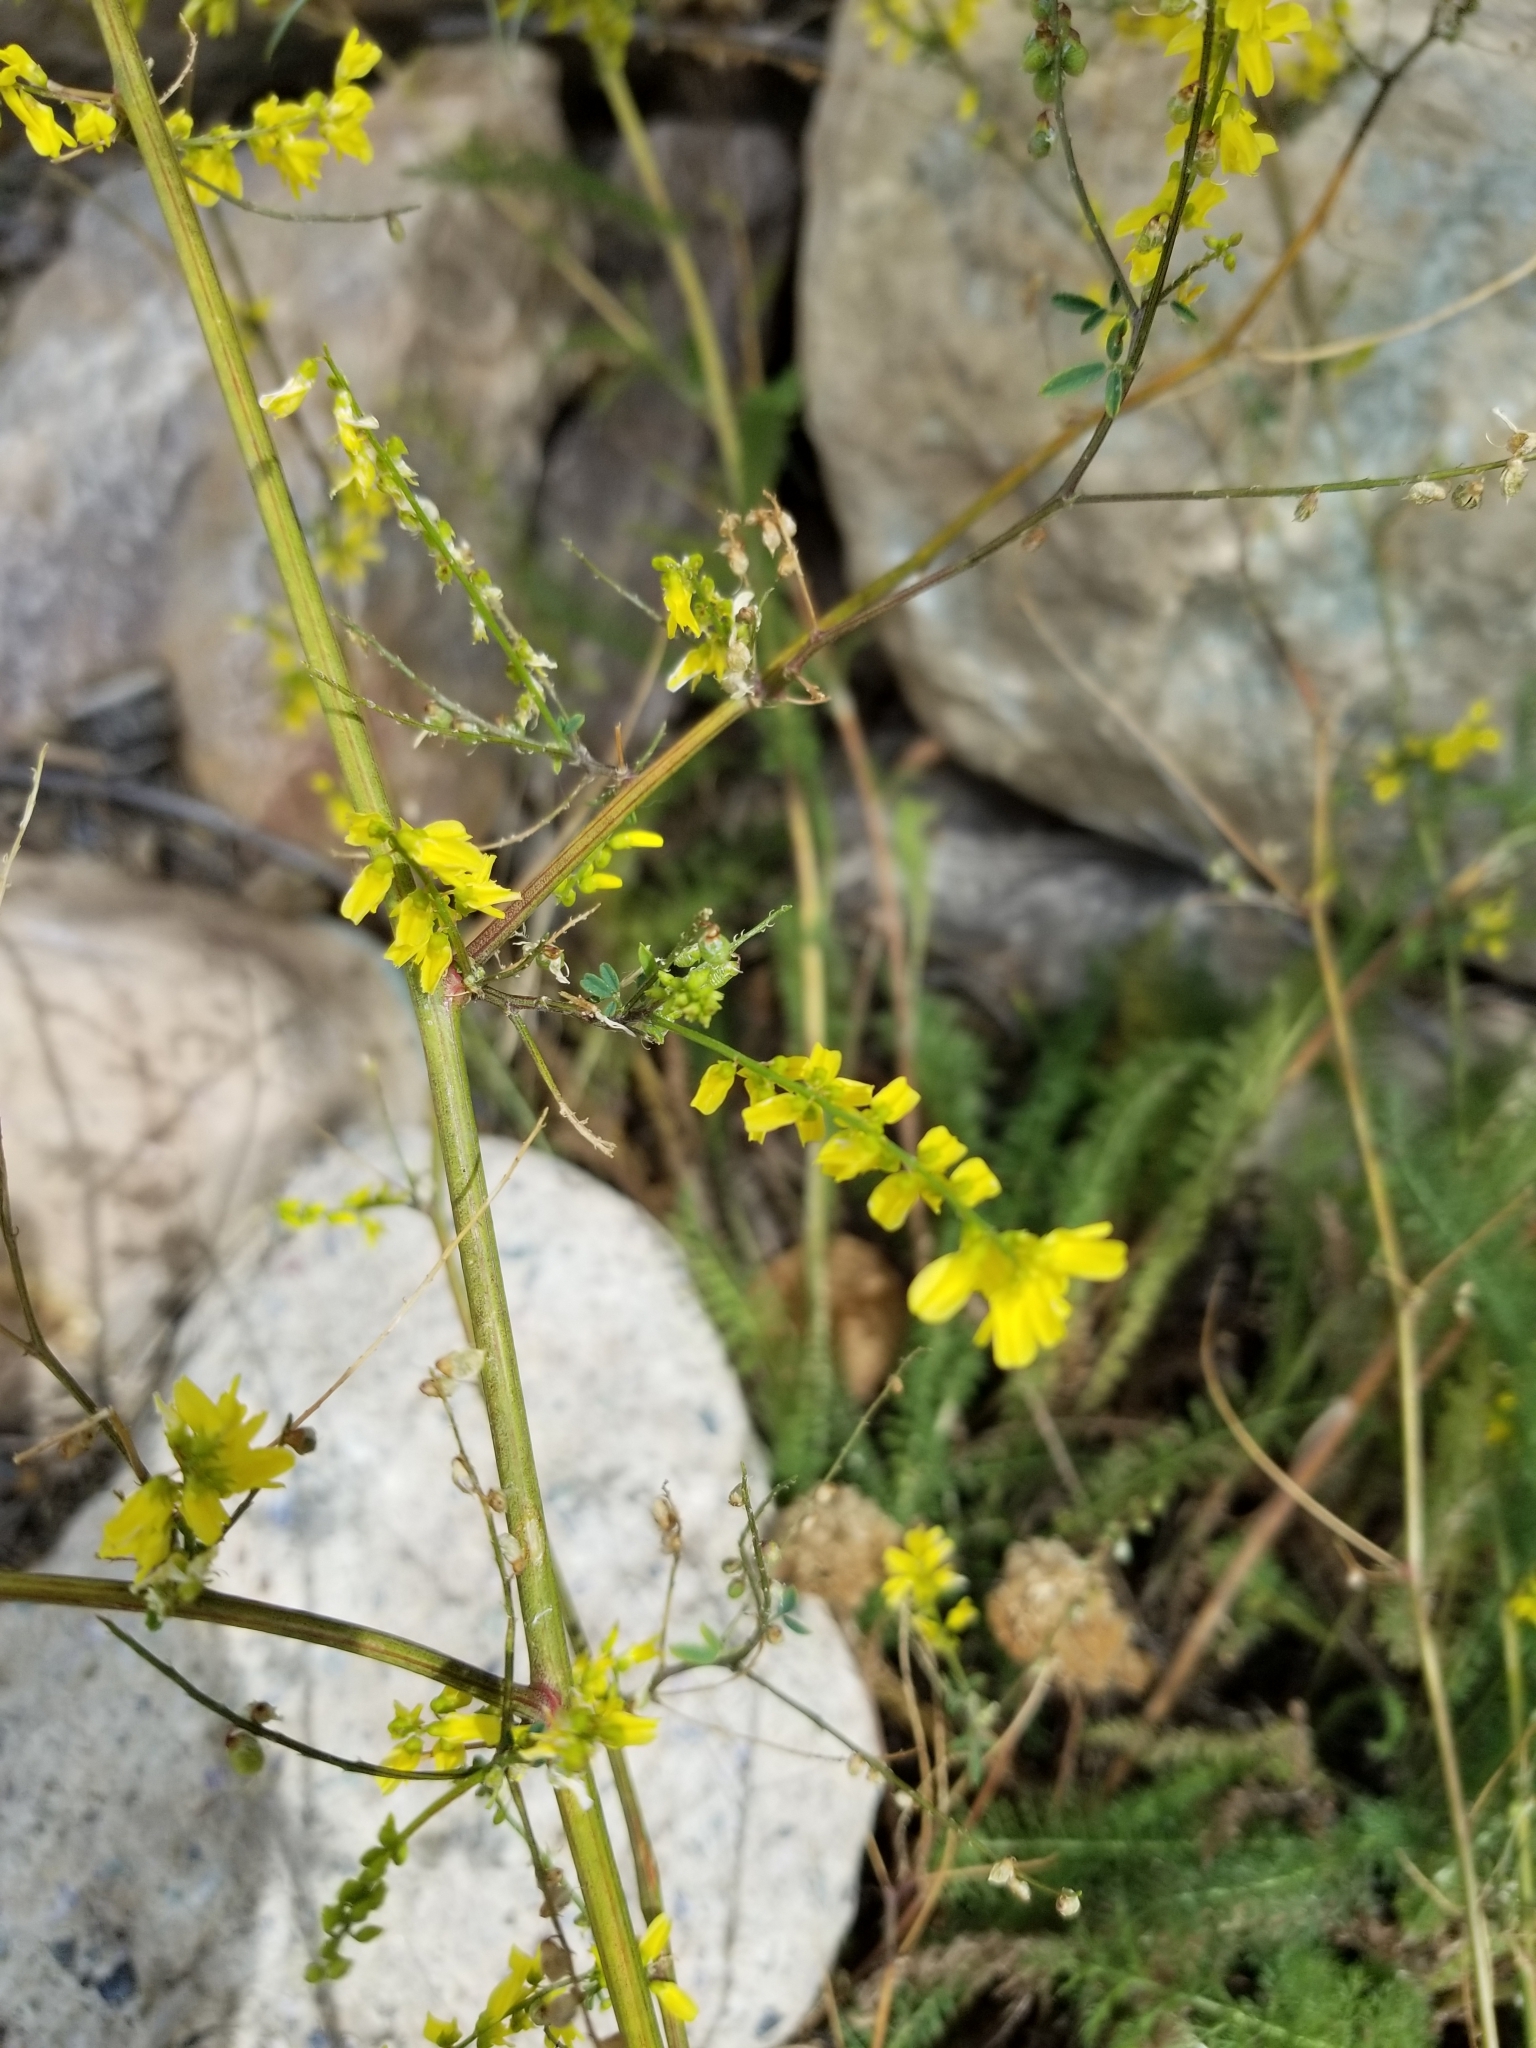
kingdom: Plantae
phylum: Tracheophyta
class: Magnoliopsida
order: Fabales
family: Fabaceae
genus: Melilotus
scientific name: Melilotus officinalis
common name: Sweetclover
